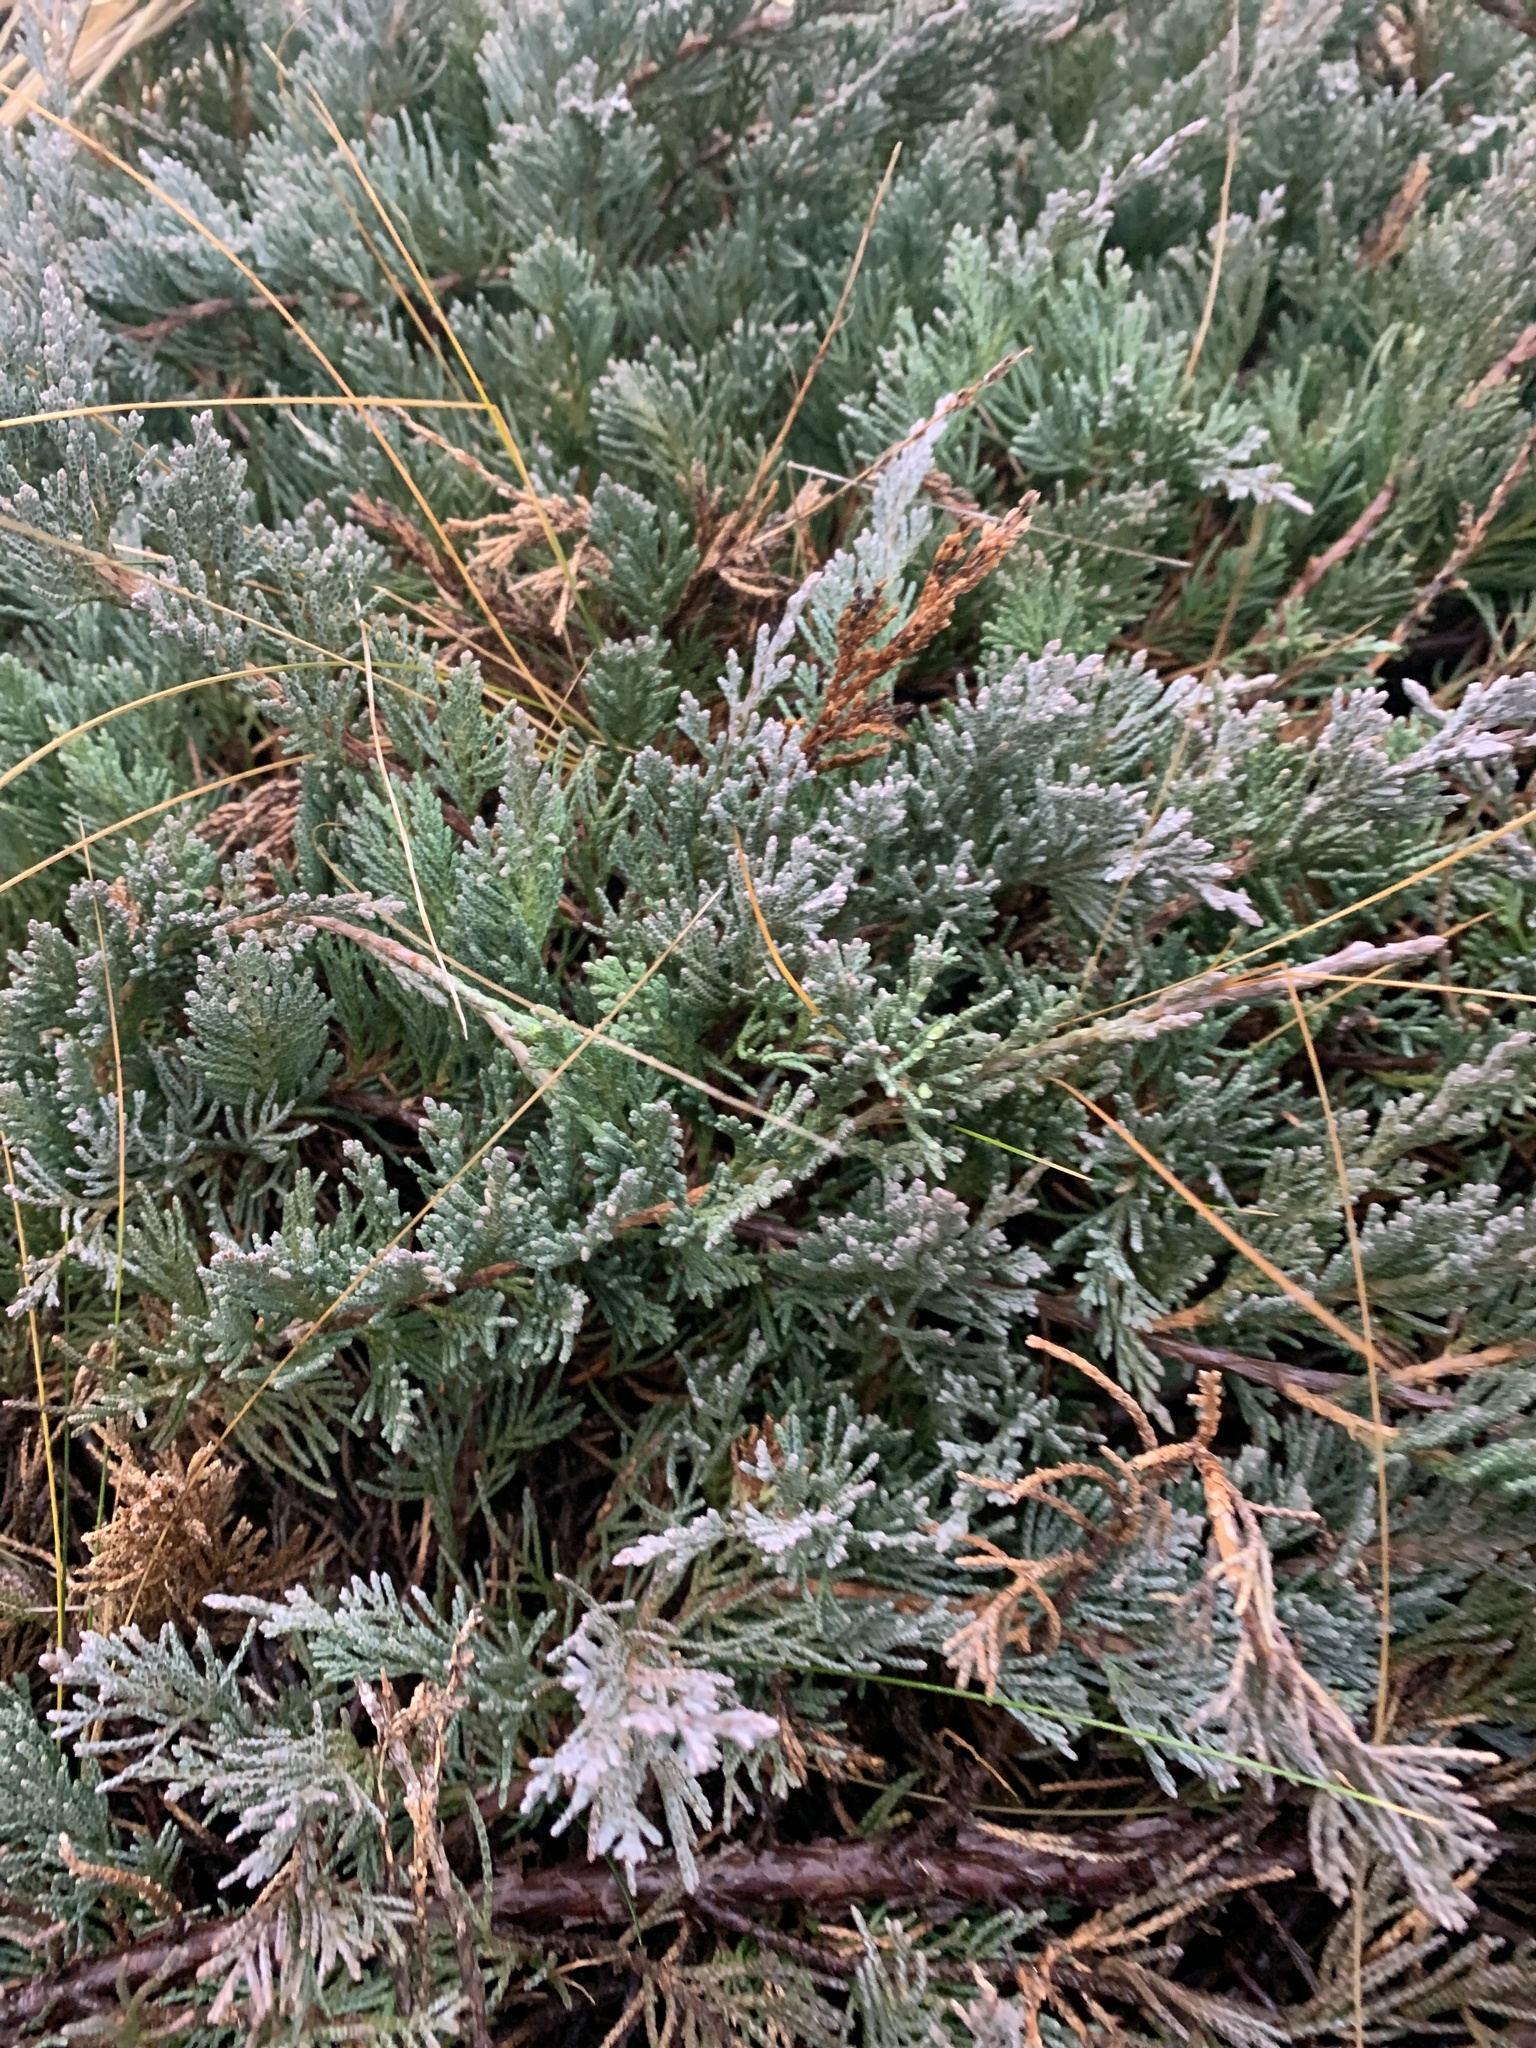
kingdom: Plantae
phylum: Tracheophyta
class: Pinopsida
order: Pinales
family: Cupressaceae
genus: Juniperus
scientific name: Juniperus horizontalis
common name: Creeping juniper
